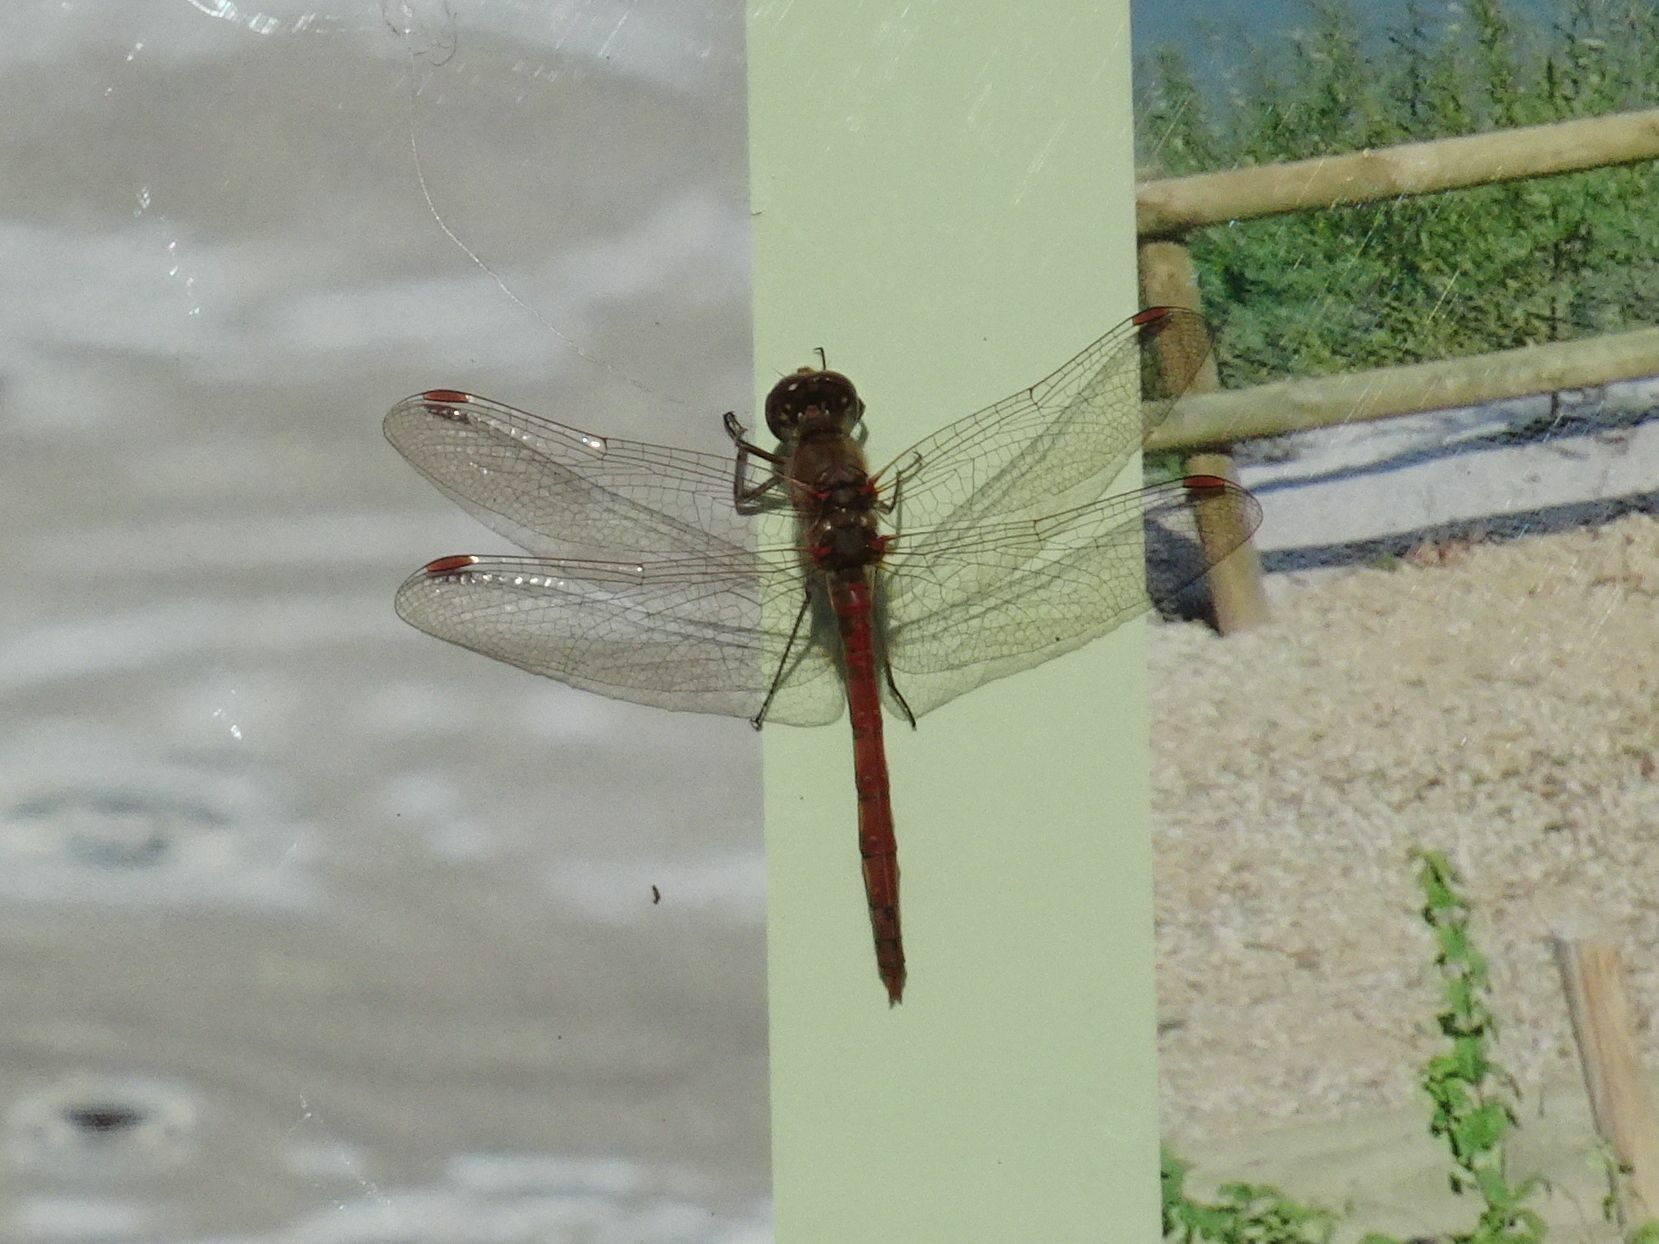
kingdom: Animalia
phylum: Arthropoda
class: Insecta
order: Odonata
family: Libellulidae
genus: Sympetrum
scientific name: Sympetrum striolatum
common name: Common darter
